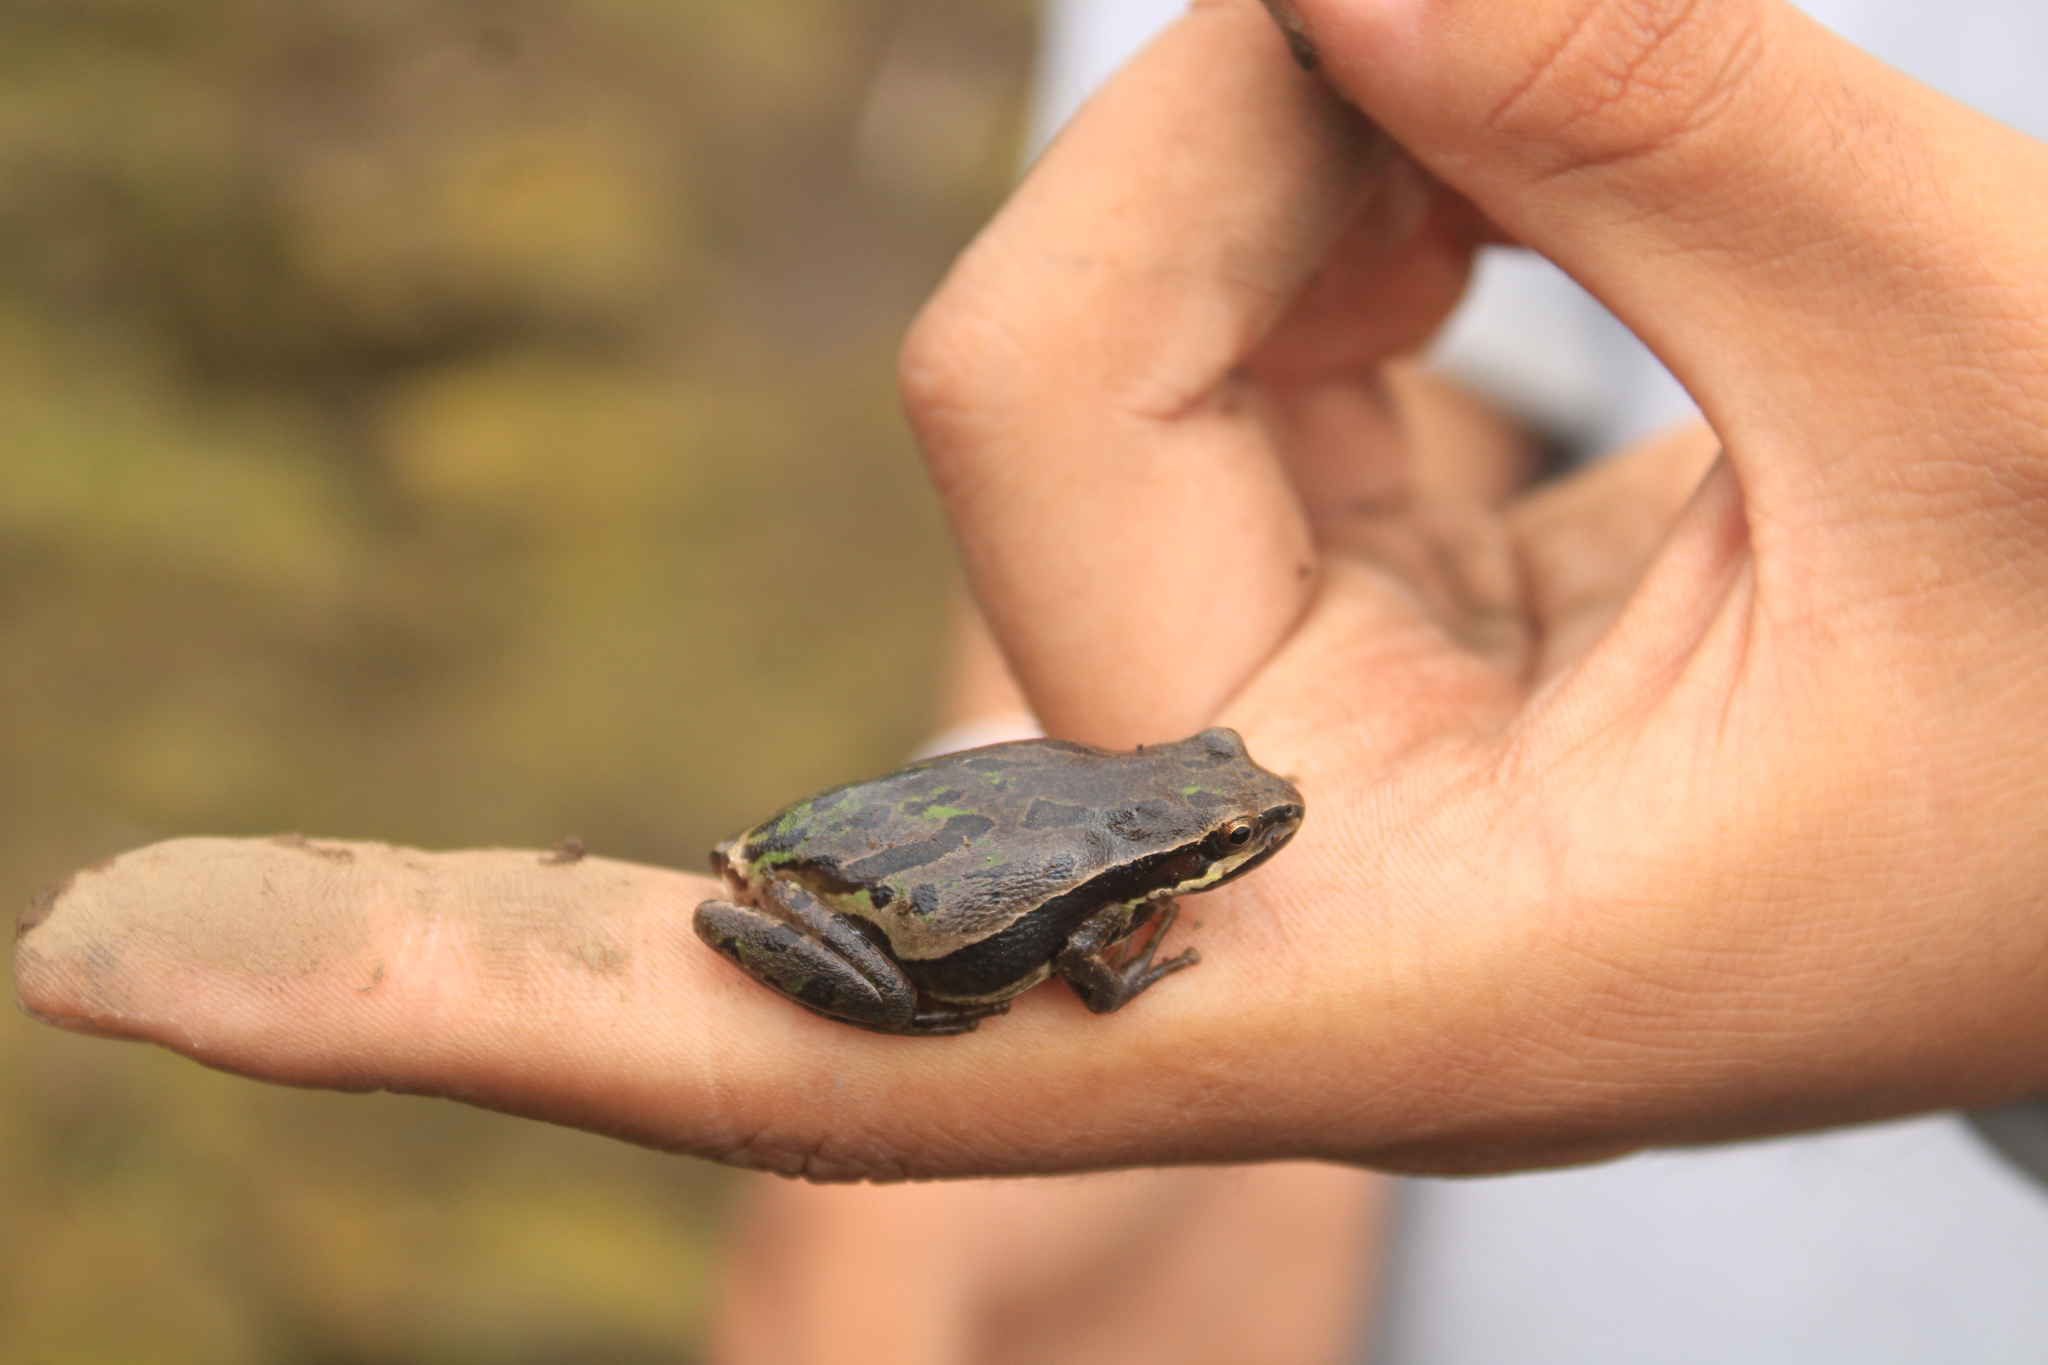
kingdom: Animalia
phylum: Chordata
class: Amphibia
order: Anura
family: Hylidae
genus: Dryophytes
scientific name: Dryophytes eximius
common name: Mountain treefrog
